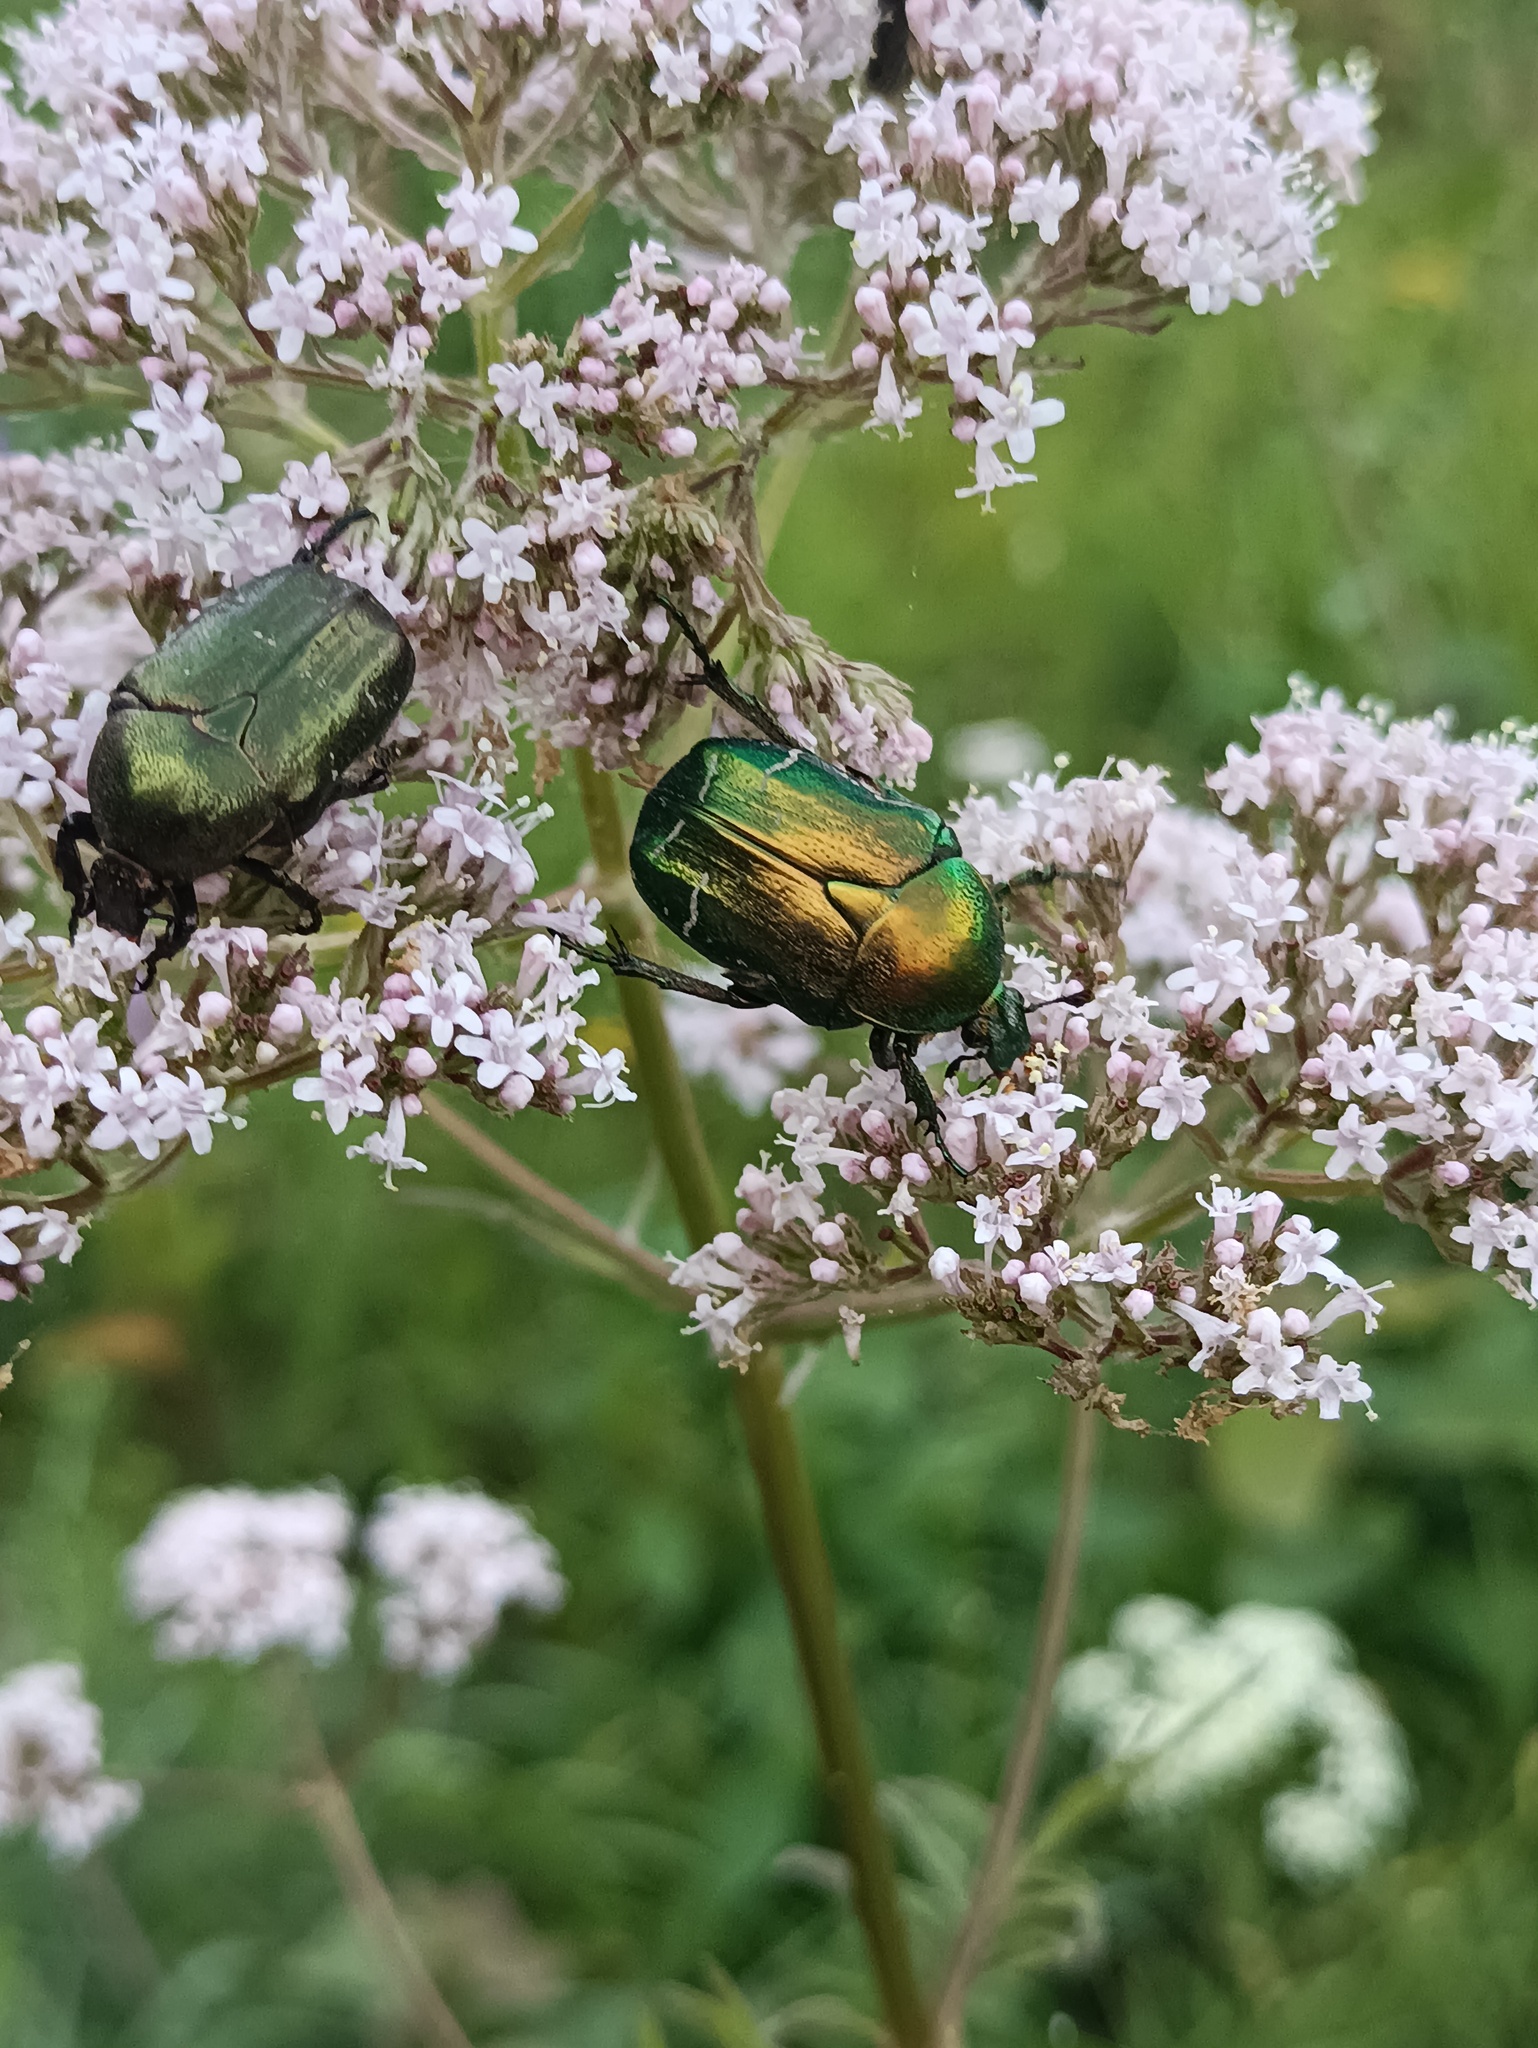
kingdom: Animalia
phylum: Arthropoda
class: Insecta
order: Coleoptera
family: Scarabaeidae
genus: Cetonia
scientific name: Cetonia aurata
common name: Rose chafer
